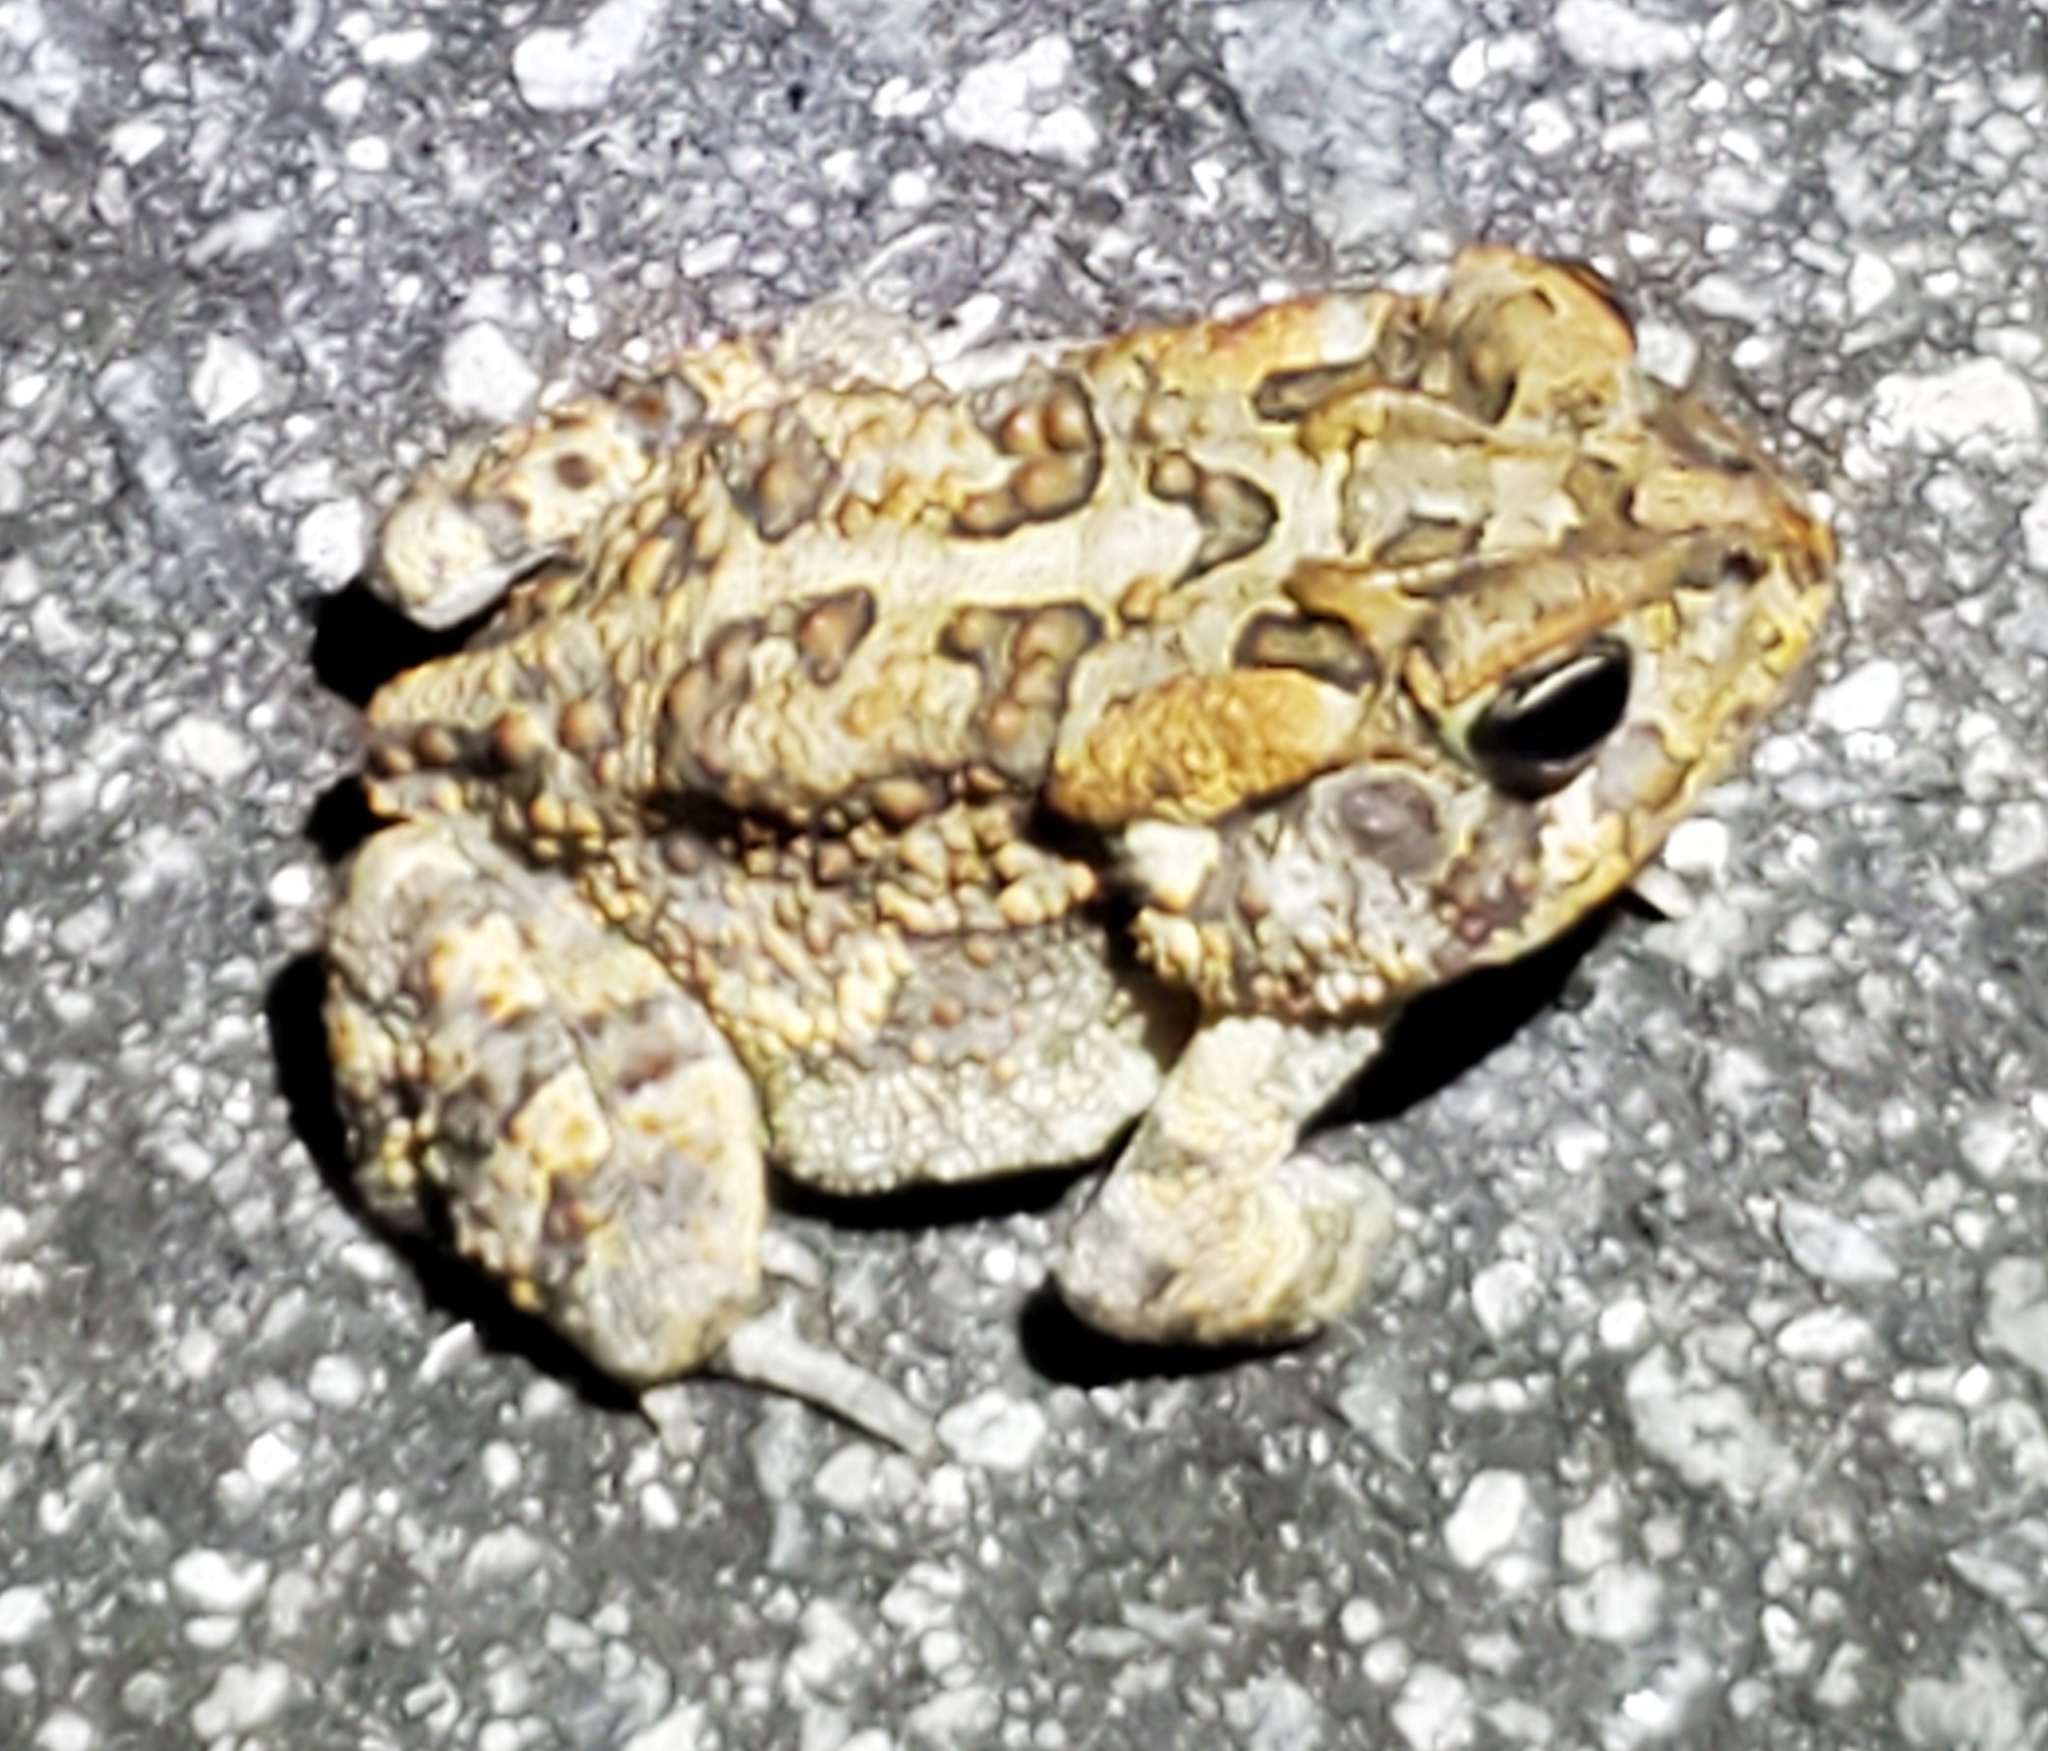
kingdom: Animalia
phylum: Chordata
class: Amphibia
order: Anura
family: Bufonidae
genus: Anaxyrus
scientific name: Anaxyrus terrestris
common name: Southern toad
